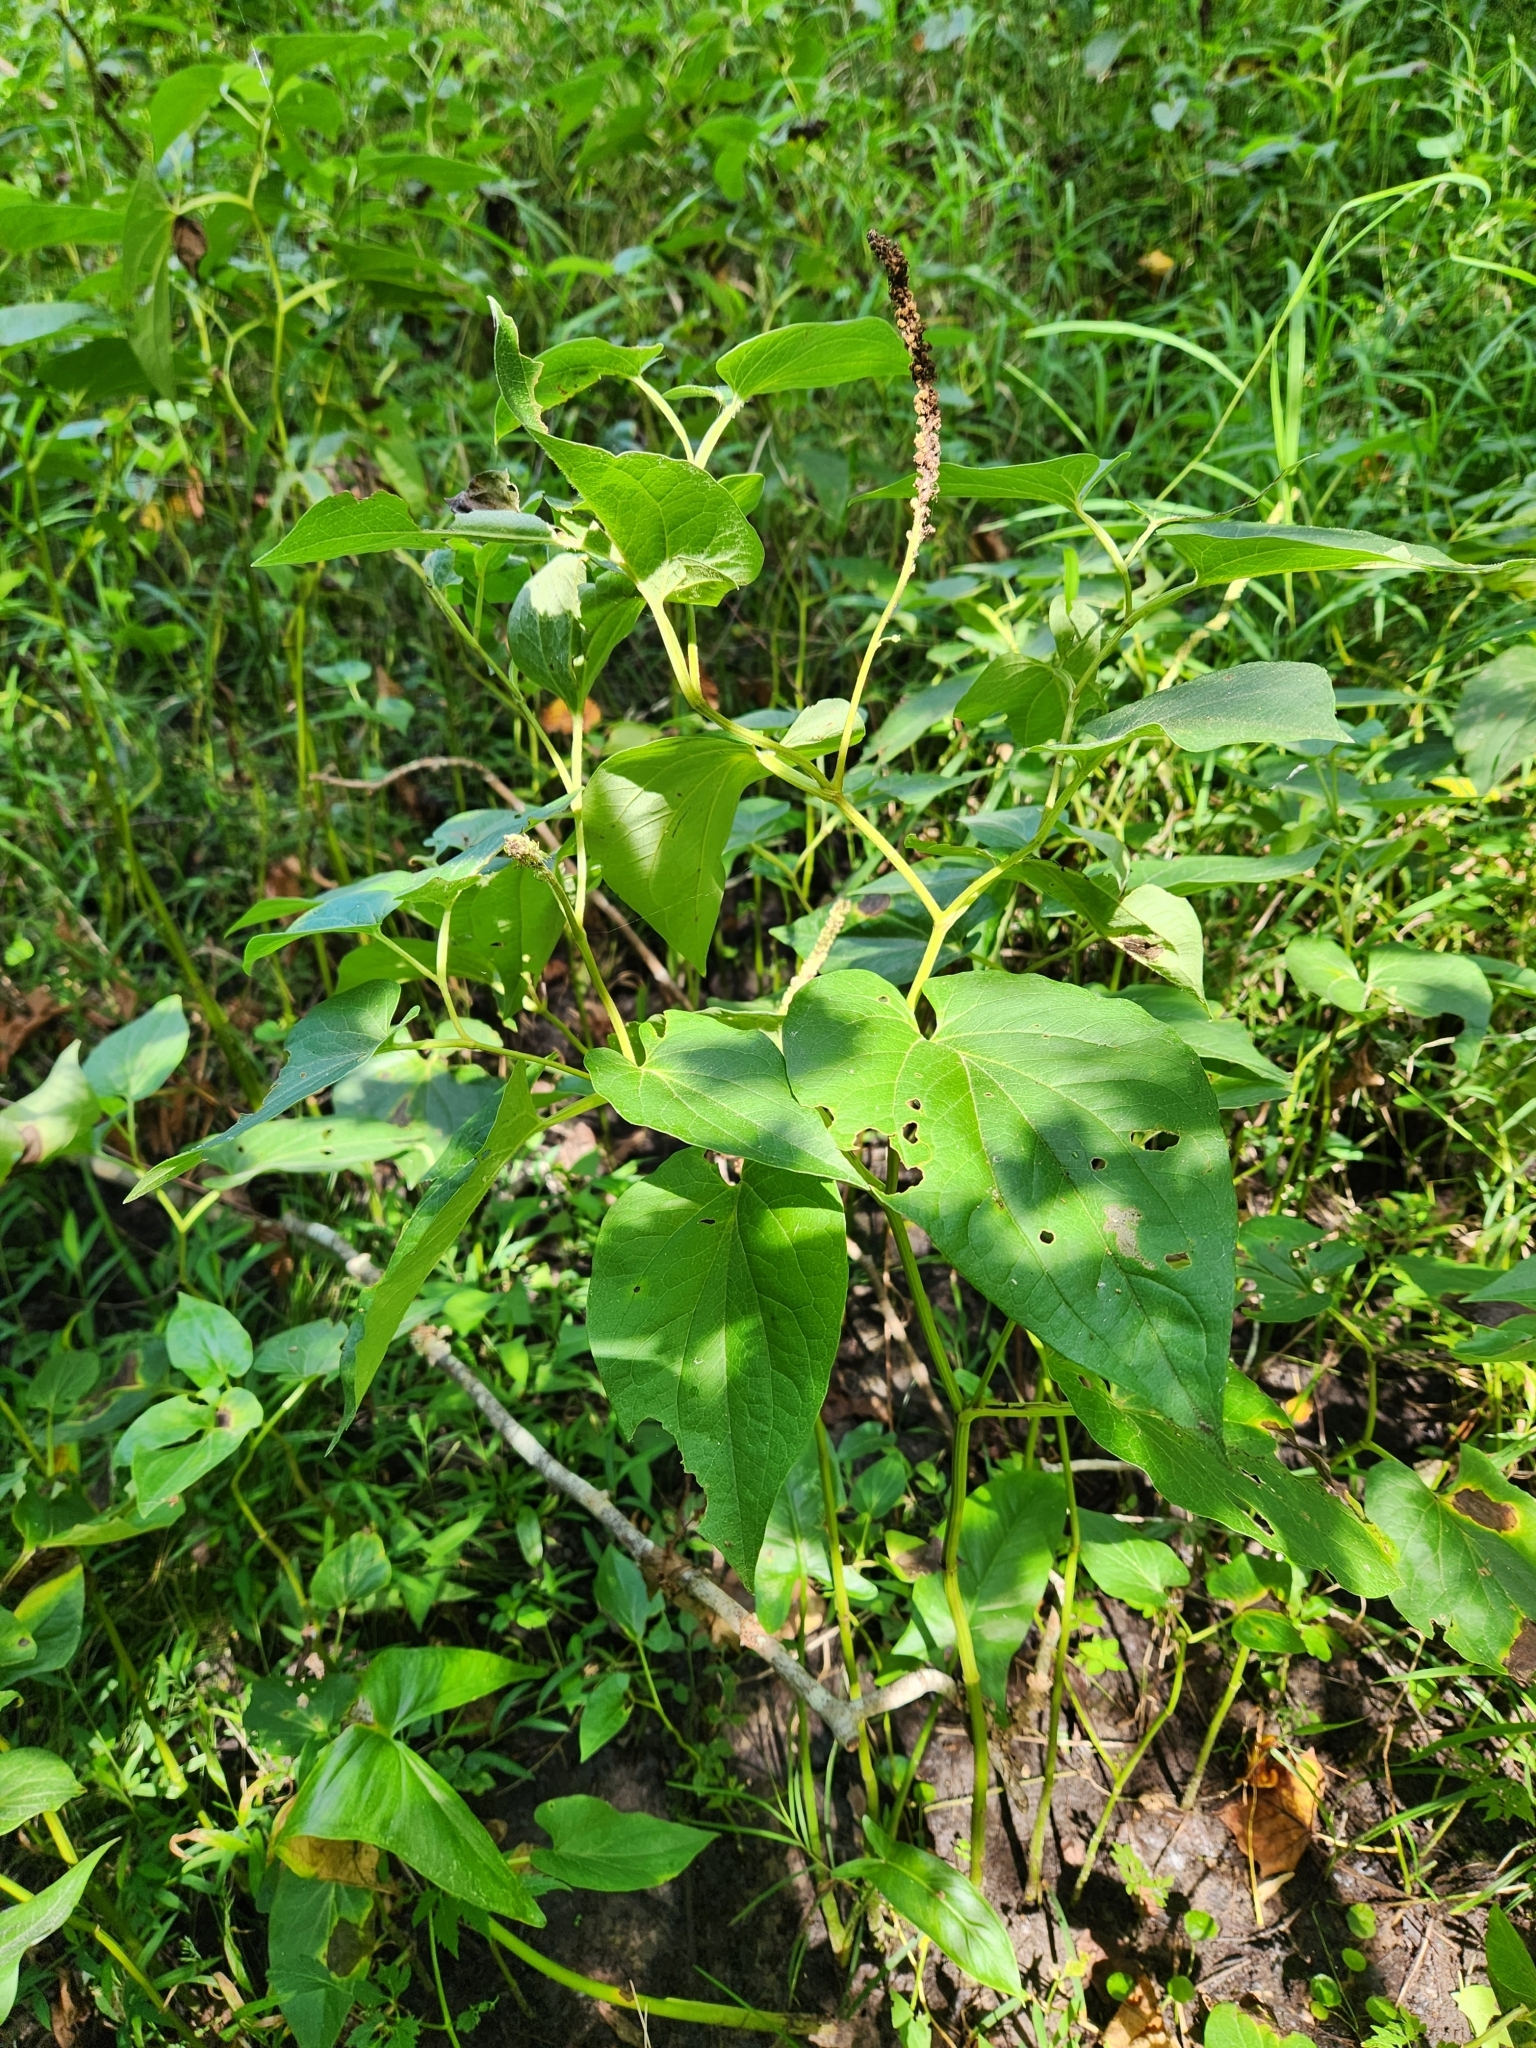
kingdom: Plantae
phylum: Tracheophyta
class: Magnoliopsida
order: Piperales
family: Saururaceae
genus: Saururus
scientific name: Saururus cernuus
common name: Lizard's-tail
